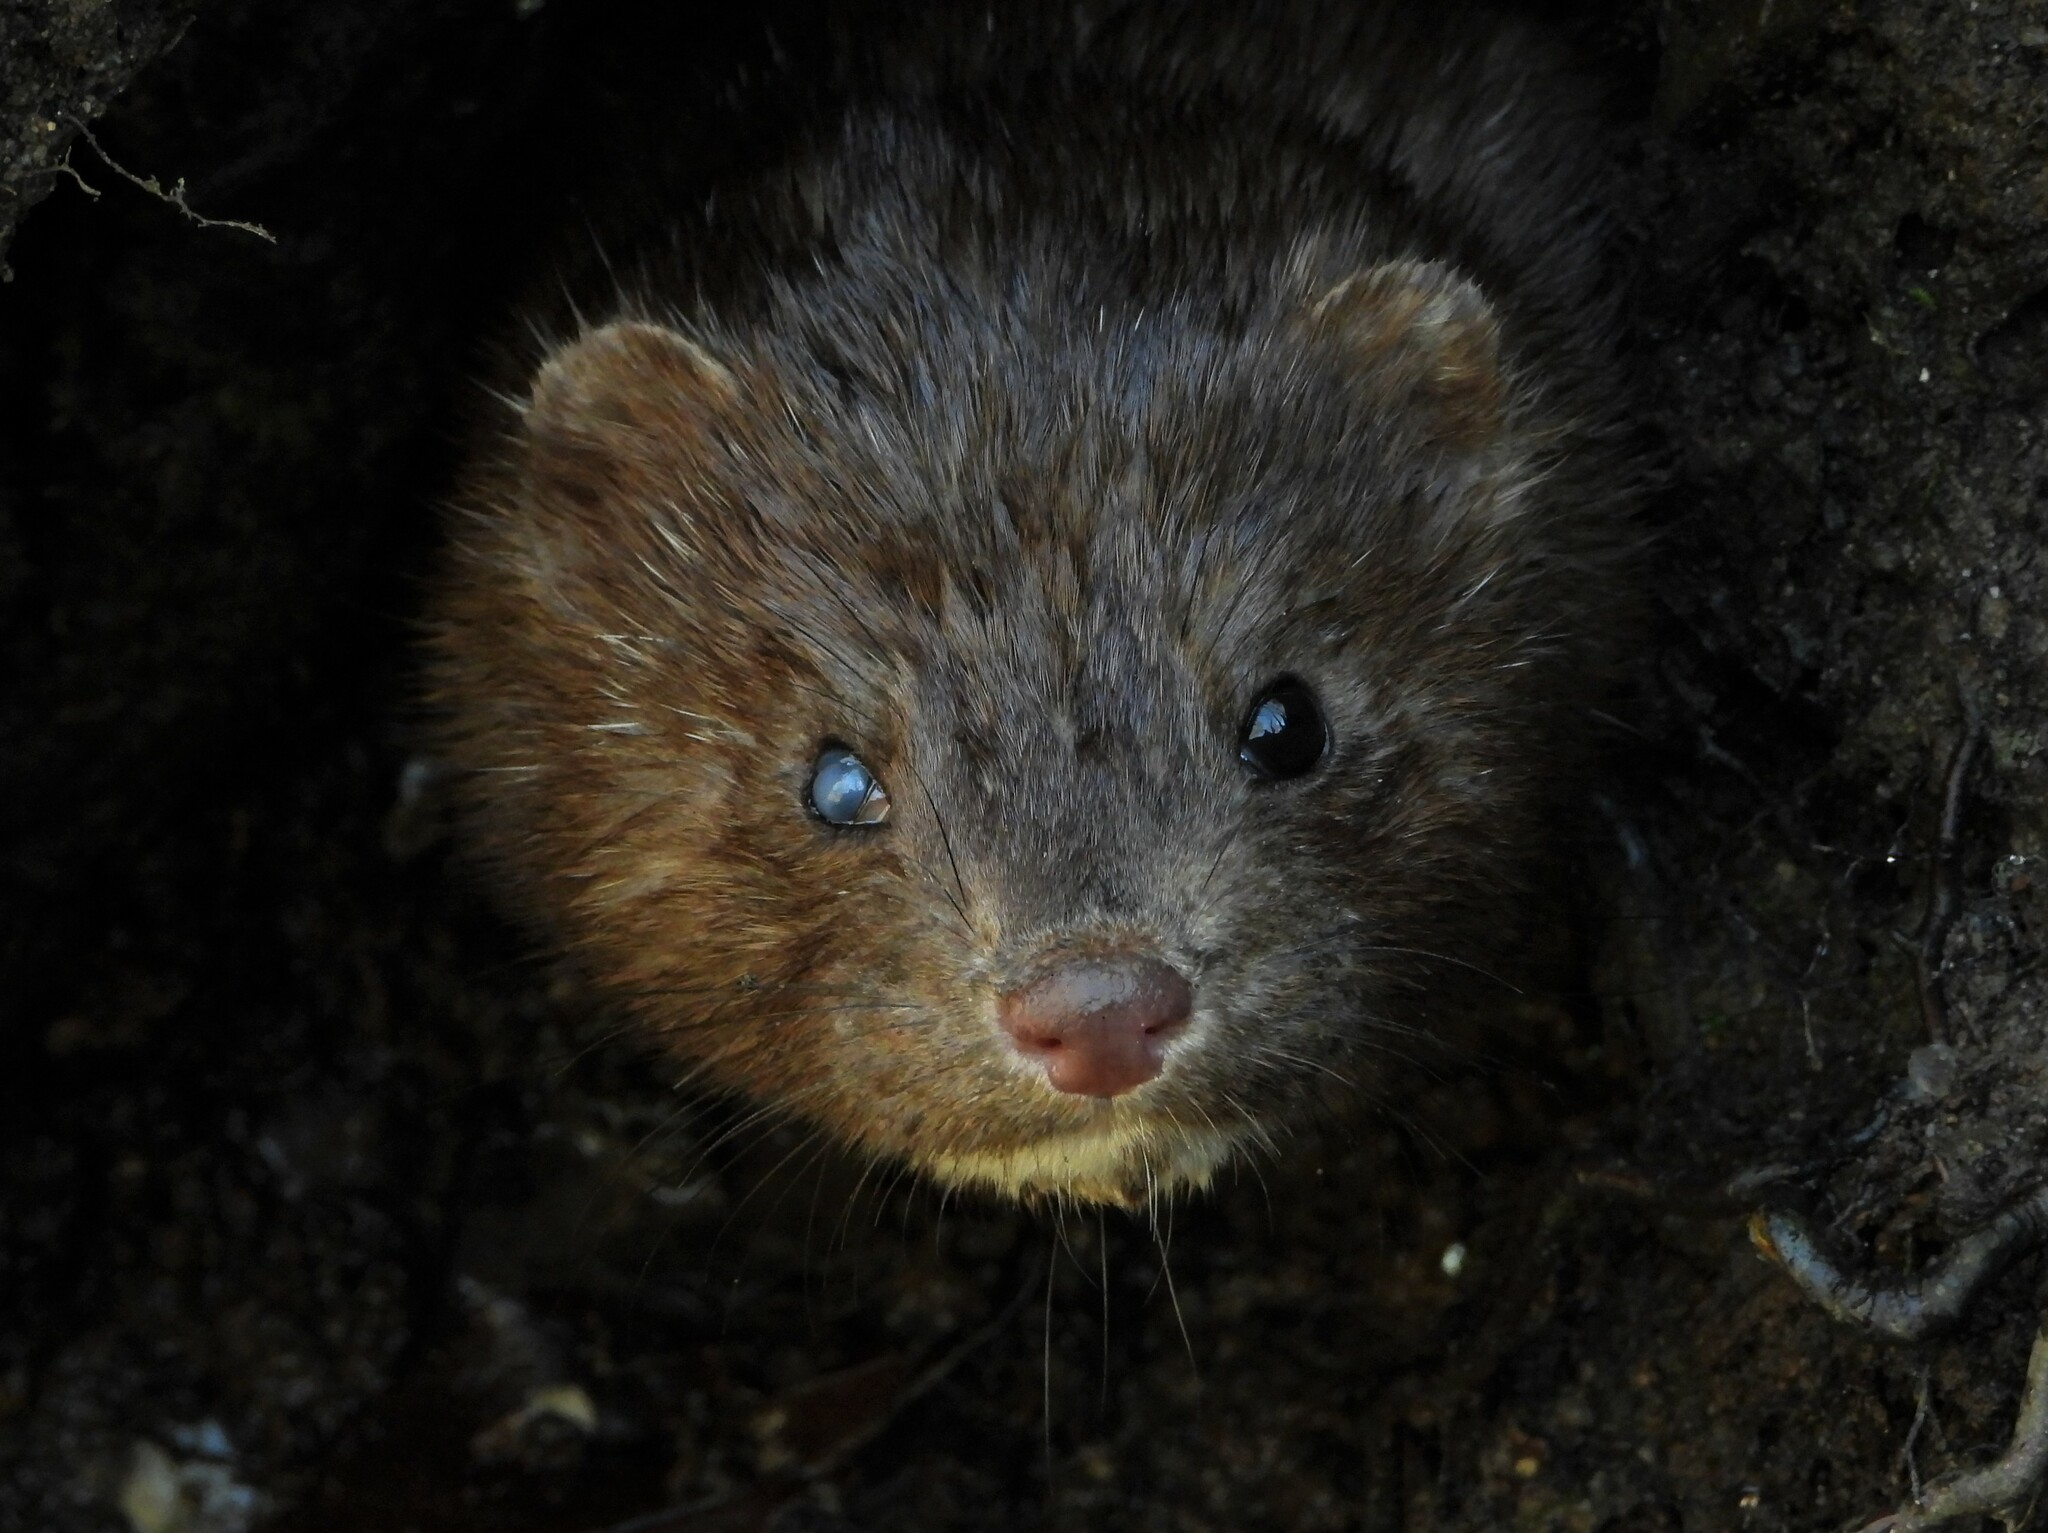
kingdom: Animalia
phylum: Chordata
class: Mammalia
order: Carnivora
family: Mustelidae
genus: Mustela
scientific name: Mustela
